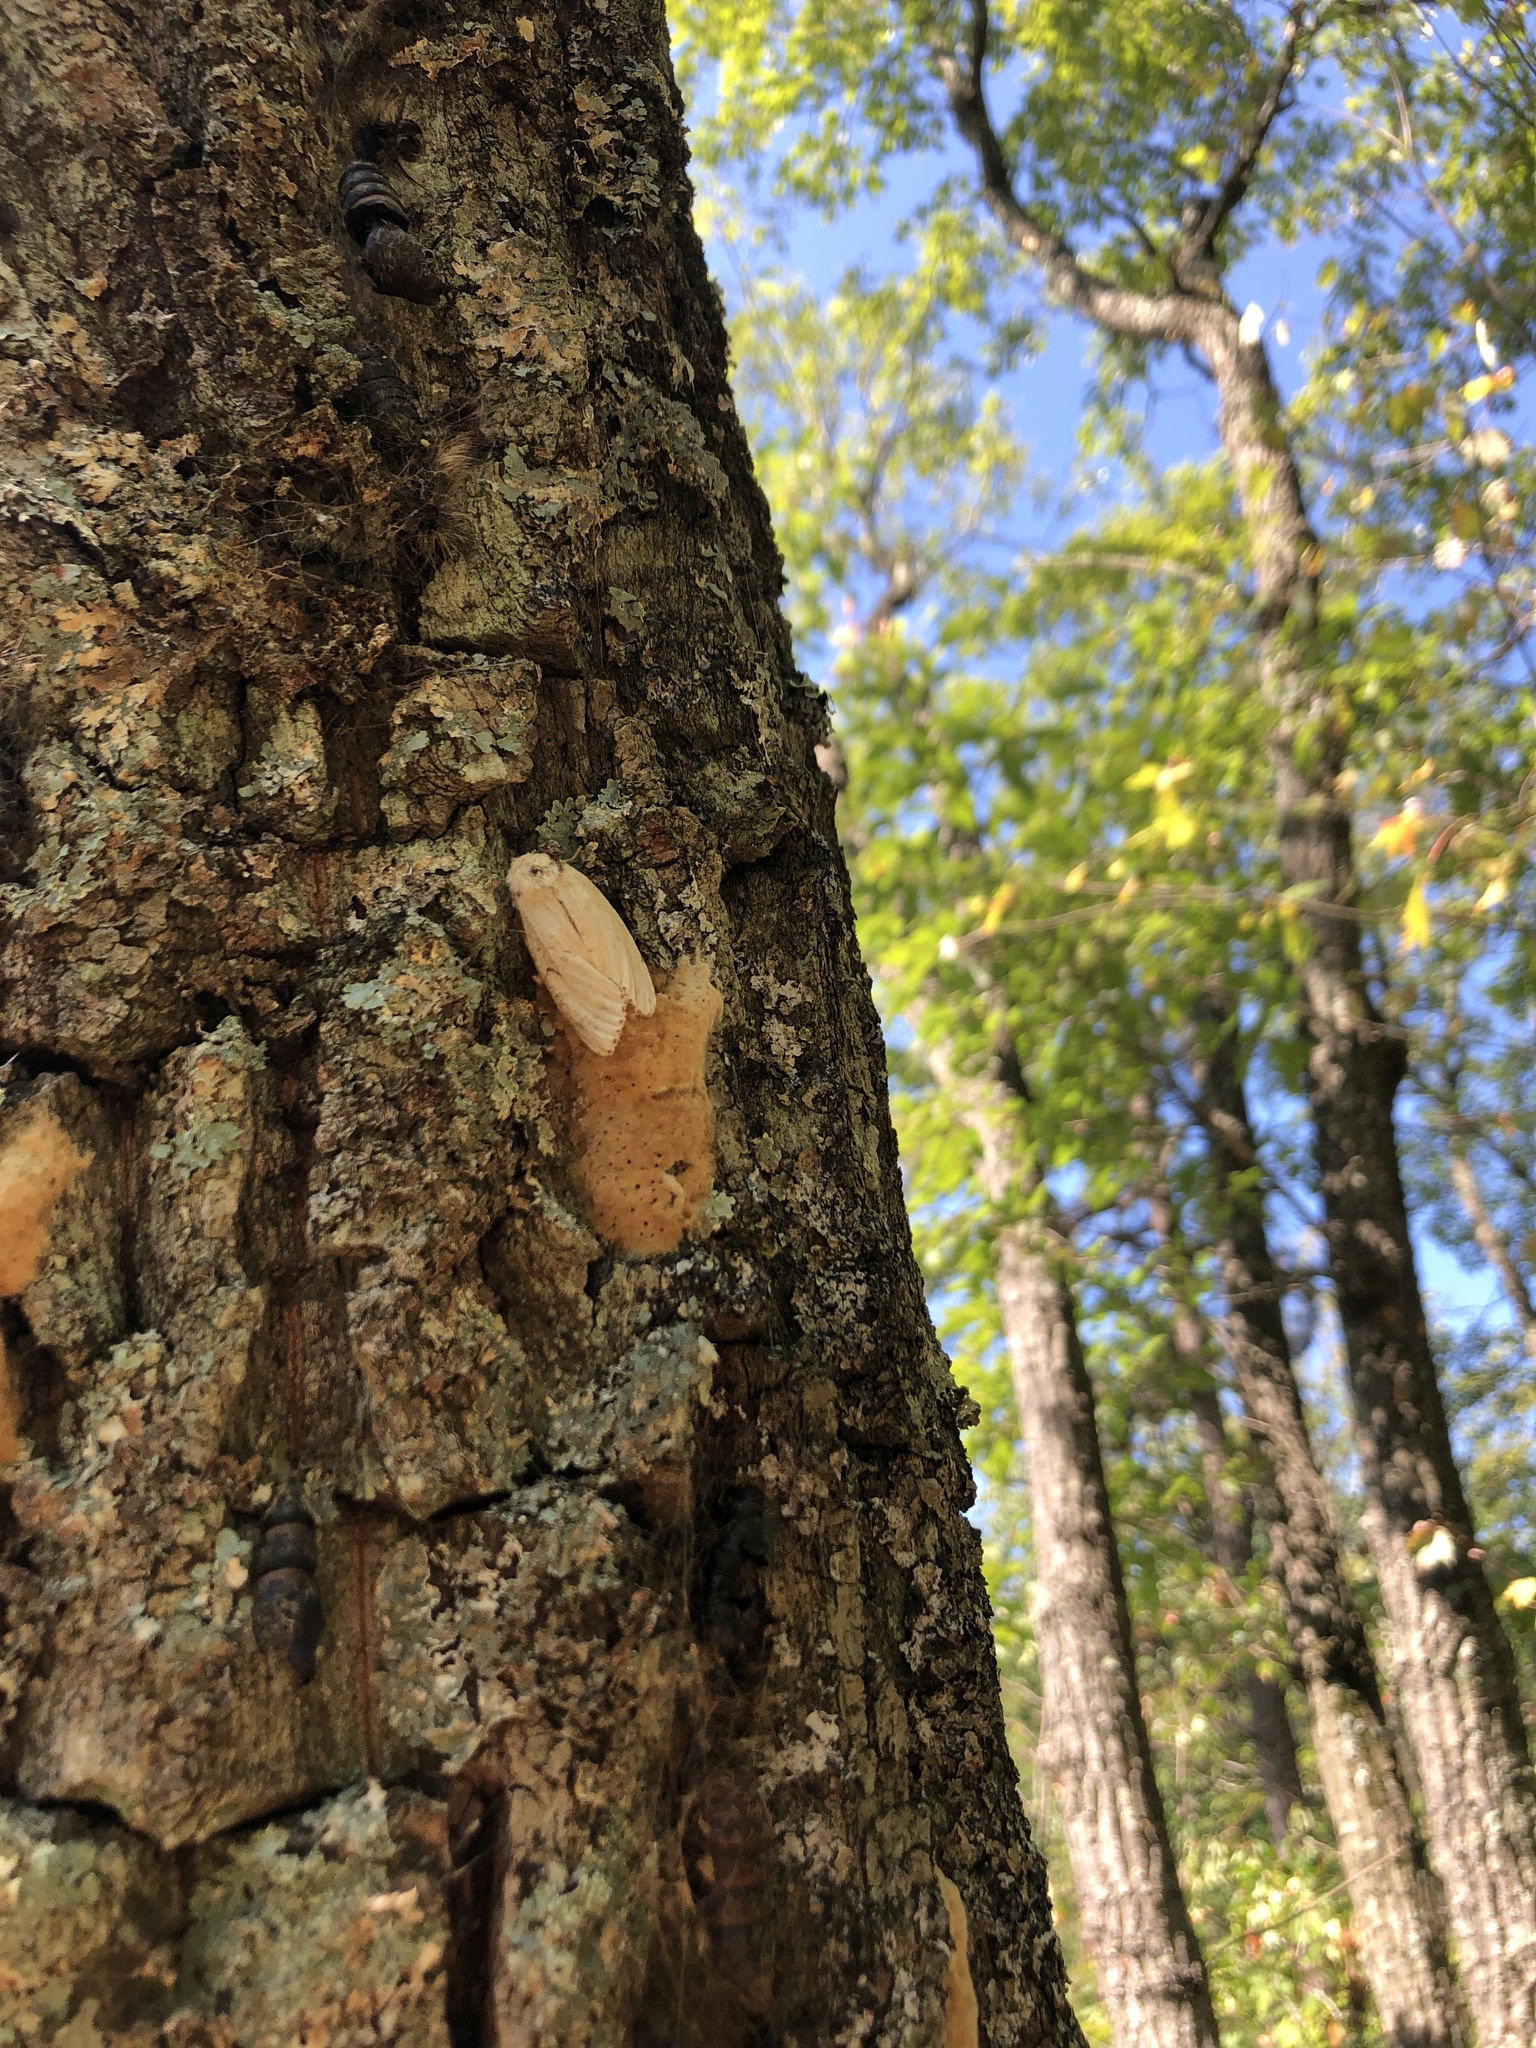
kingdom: Animalia
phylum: Arthropoda
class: Insecta
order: Lepidoptera
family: Erebidae
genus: Lymantria
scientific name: Lymantria dispar
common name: Gypsy moth
